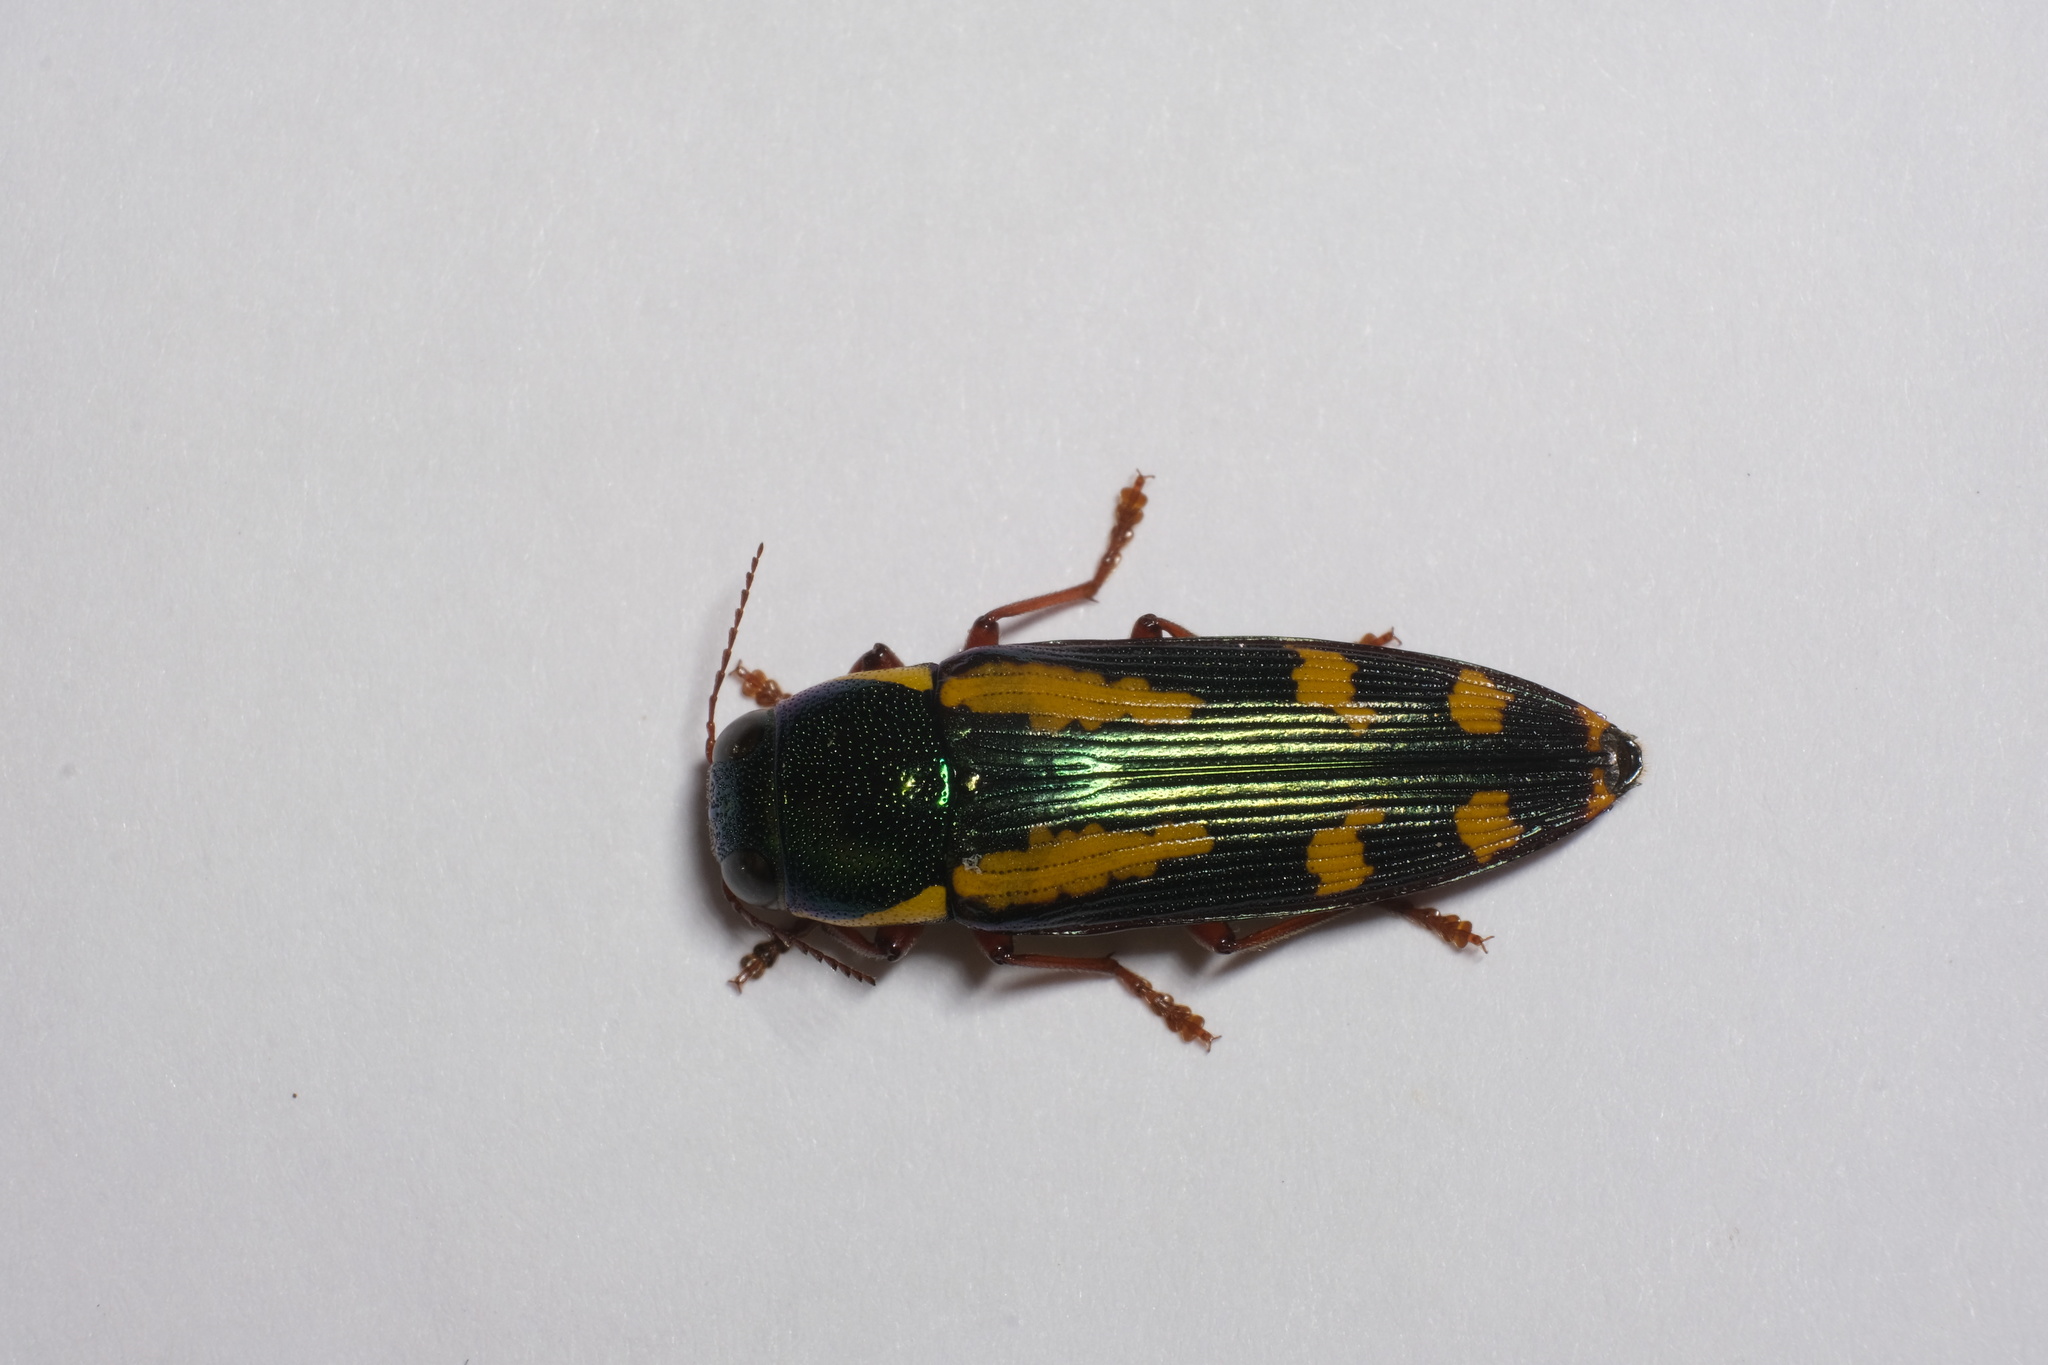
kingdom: Animalia
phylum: Arthropoda
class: Insecta
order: Coleoptera
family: Buprestidae
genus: Buprestis
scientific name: Buprestis rufipes
